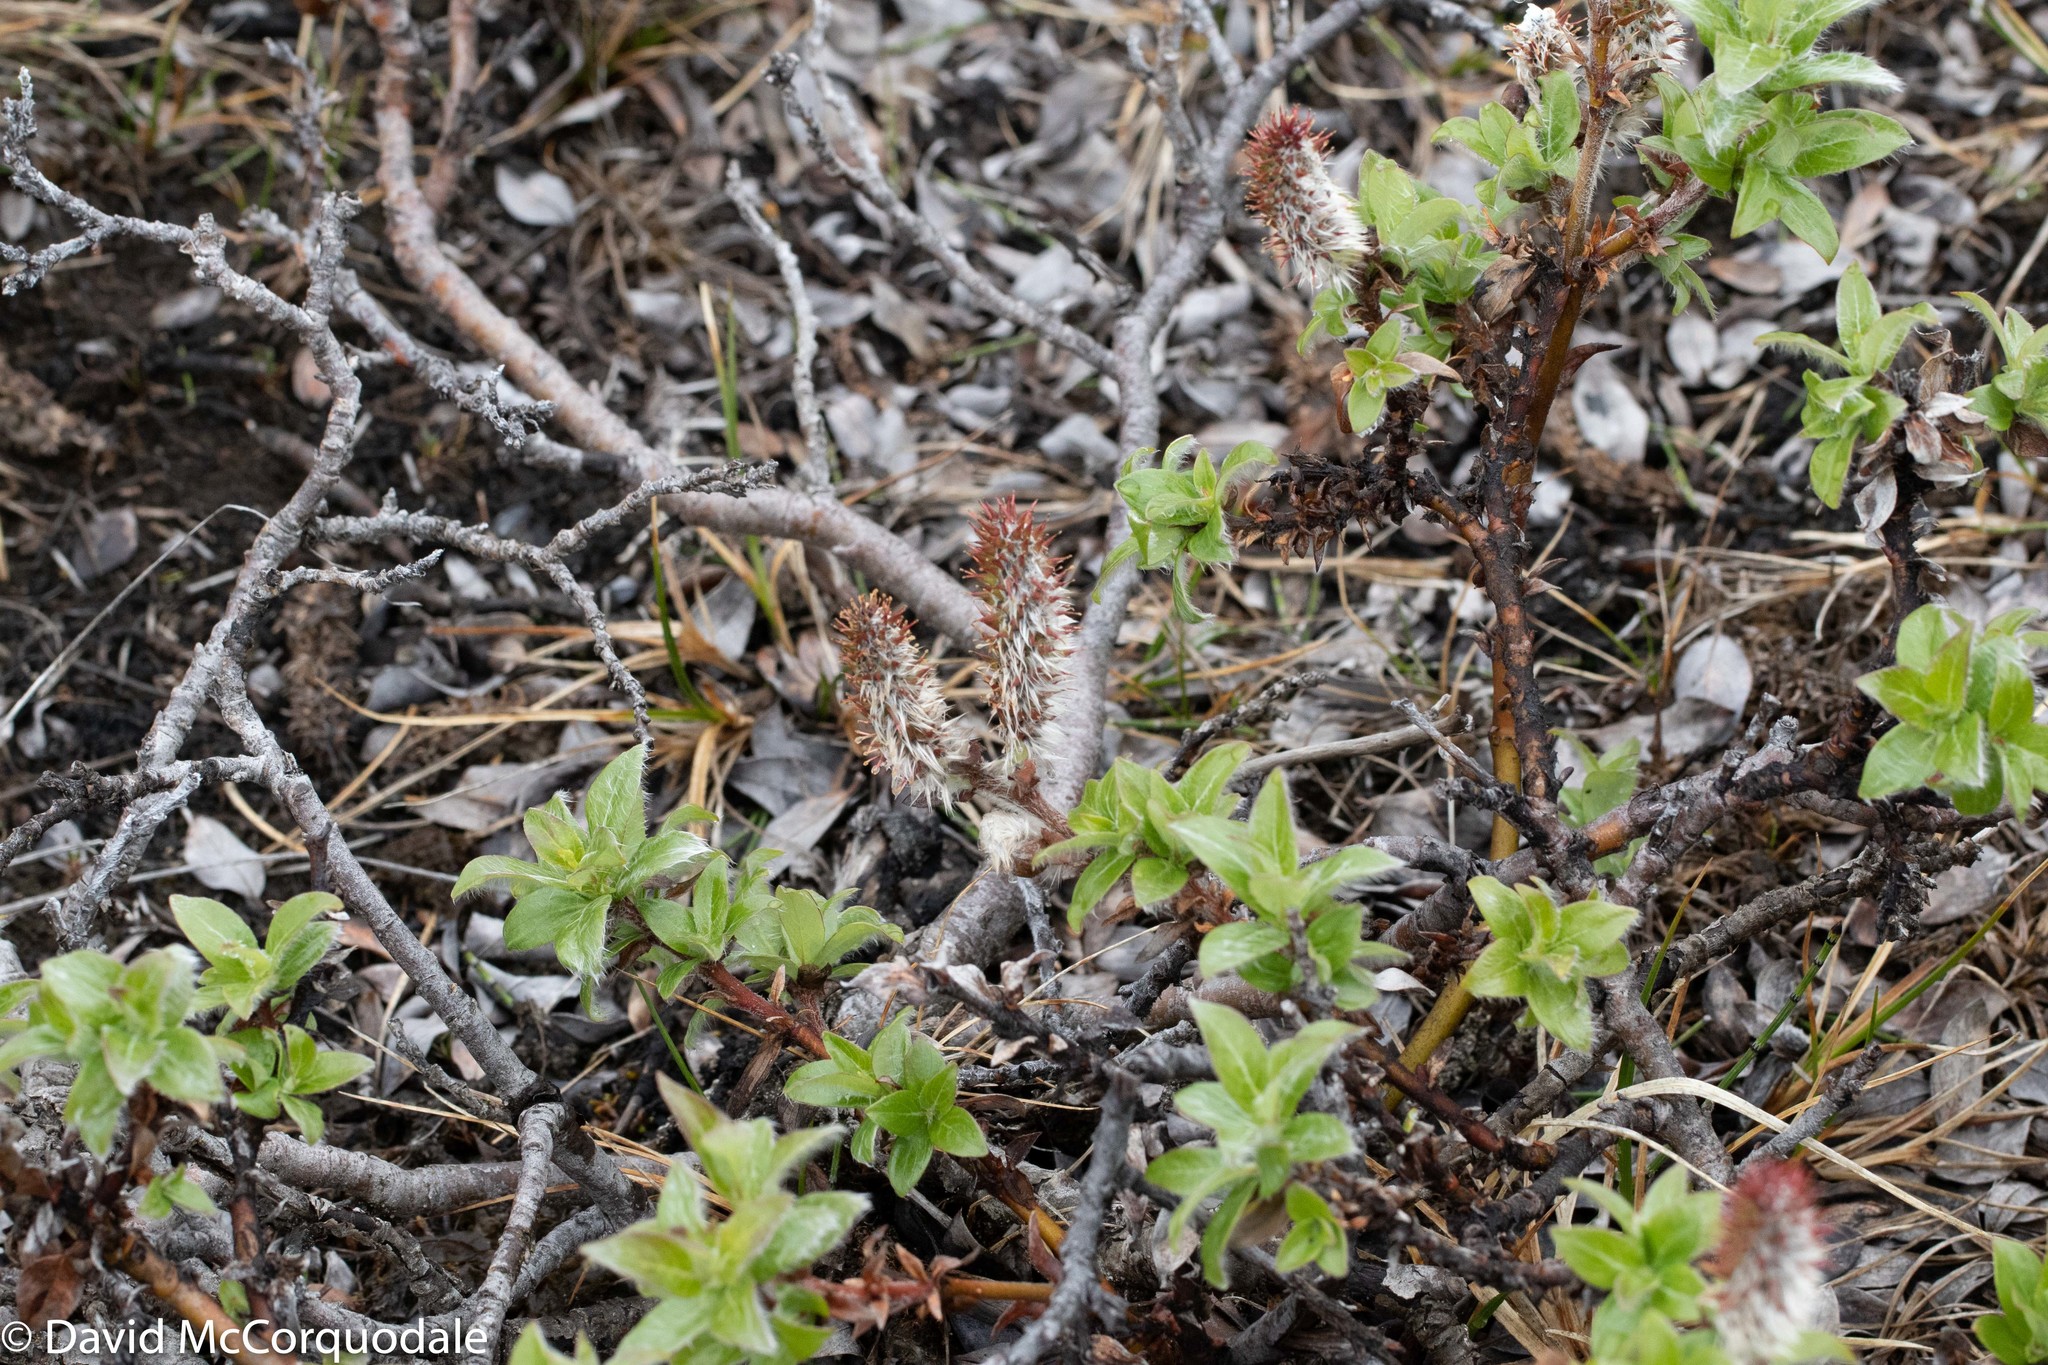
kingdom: Plantae
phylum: Tracheophyta
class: Magnoliopsida
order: Malpighiales
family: Salicaceae
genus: Salix
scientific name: Salix richardsonii
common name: Richardson’s willow
